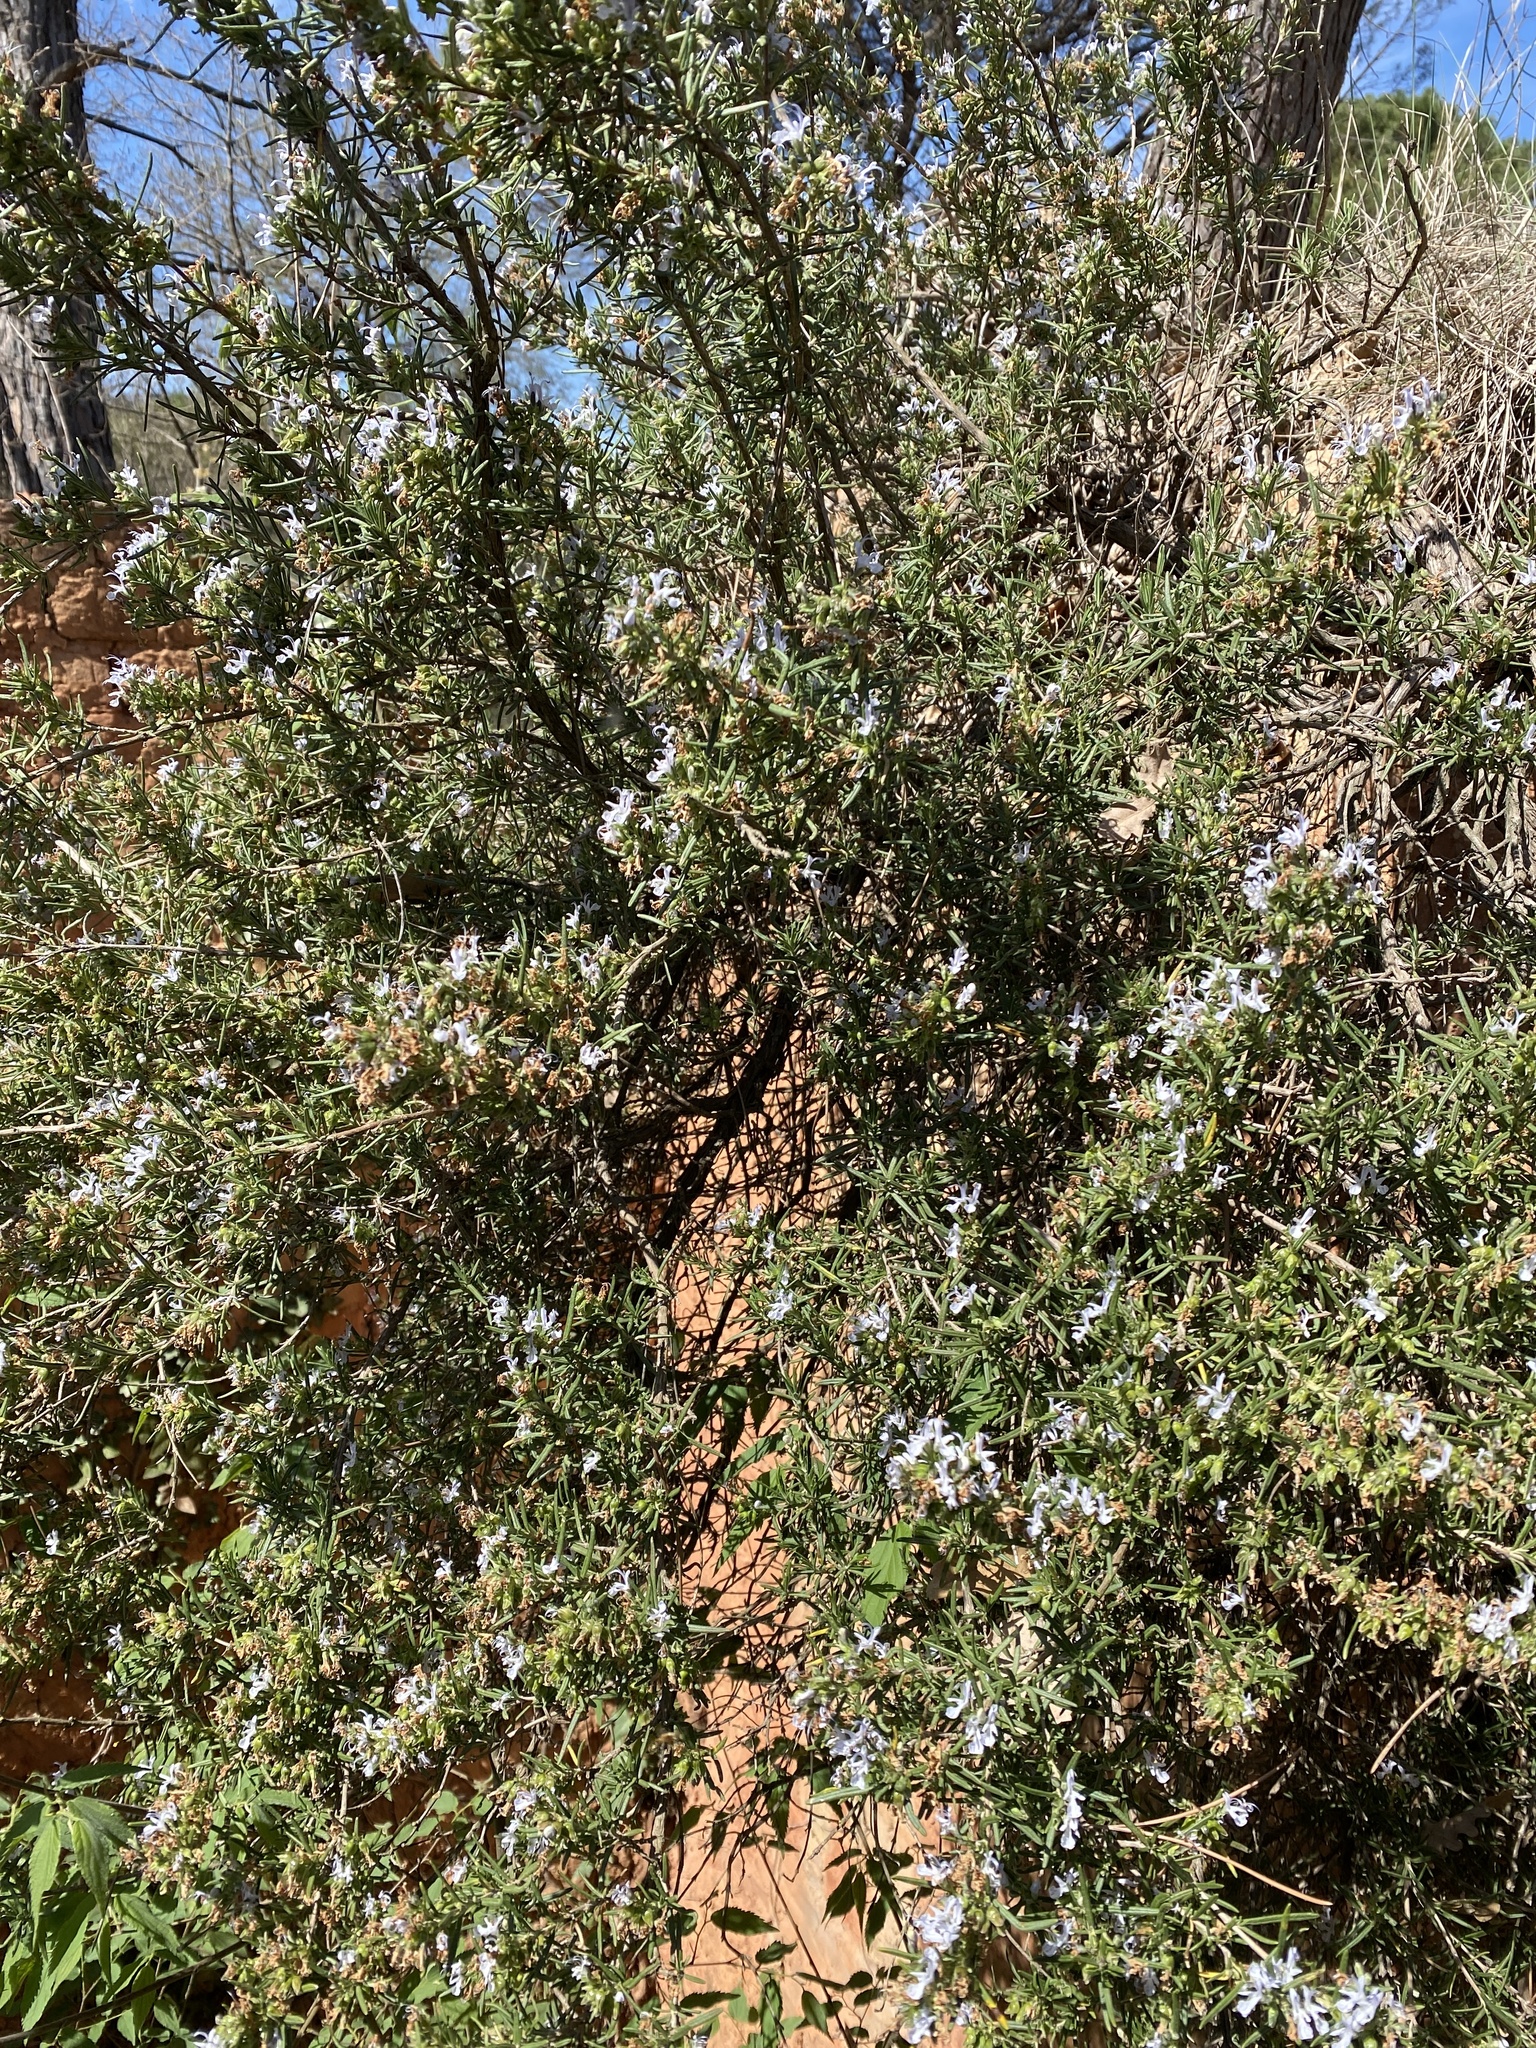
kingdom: Plantae
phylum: Tracheophyta
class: Magnoliopsida
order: Lamiales
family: Lamiaceae
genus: Salvia
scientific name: Salvia rosmarinus
